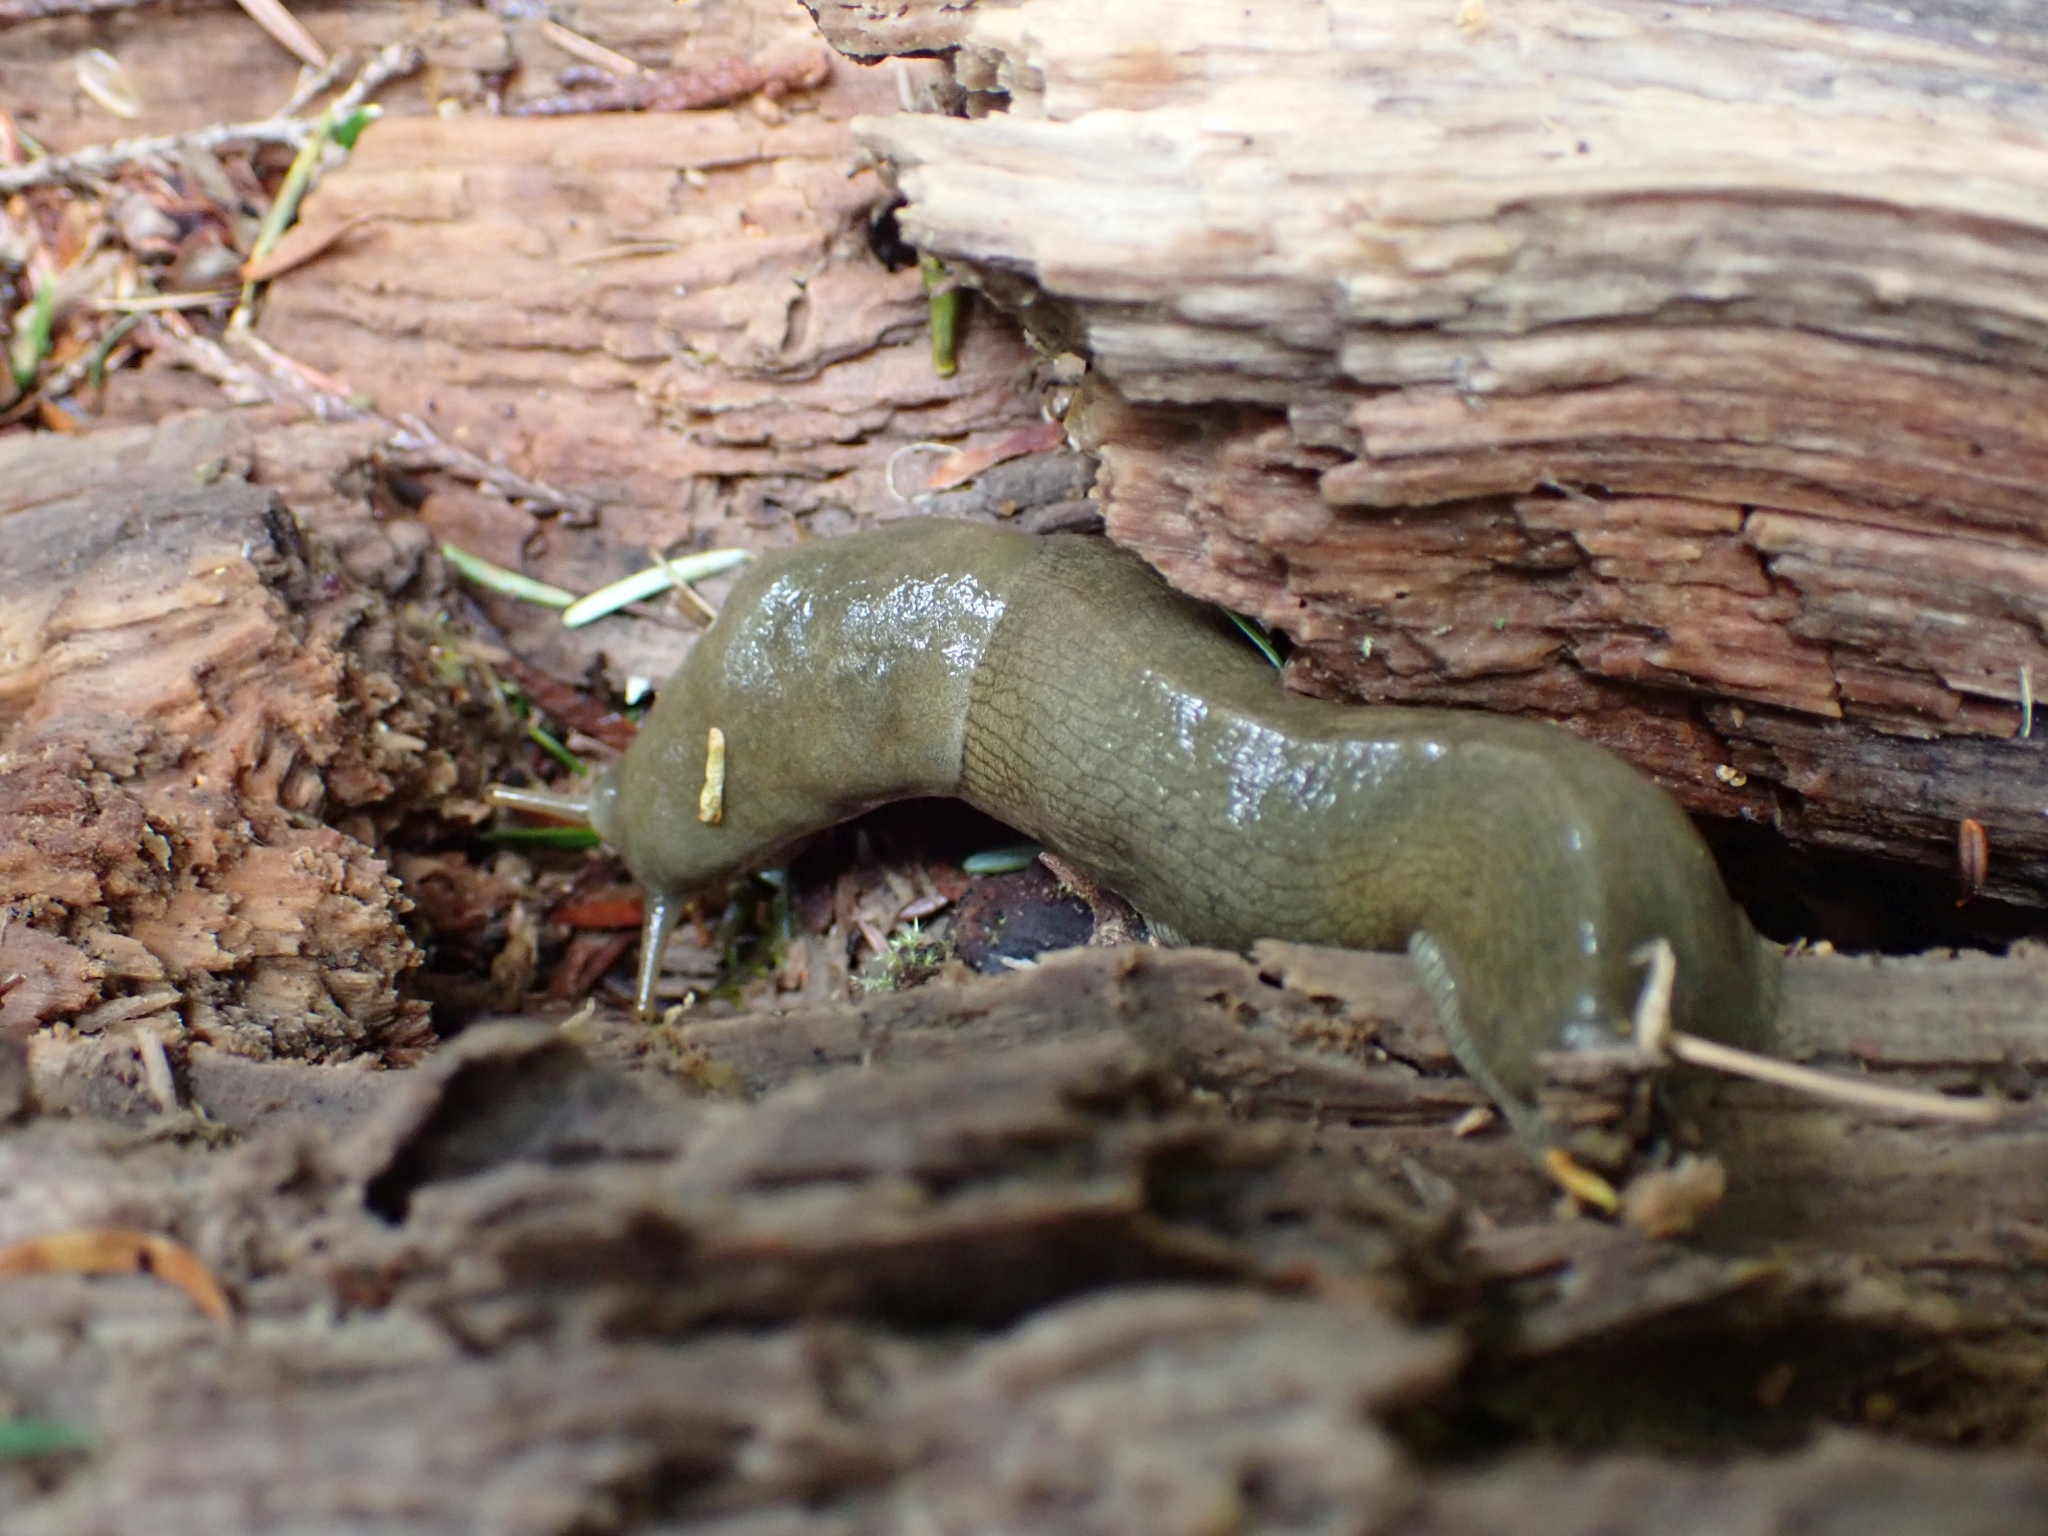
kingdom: Animalia
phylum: Mollusca
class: Gastropoda
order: Stylommatophora
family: Ariolimacidae
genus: Ariolimax
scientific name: Ariolimax columbianus
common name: Pacific banana slug
